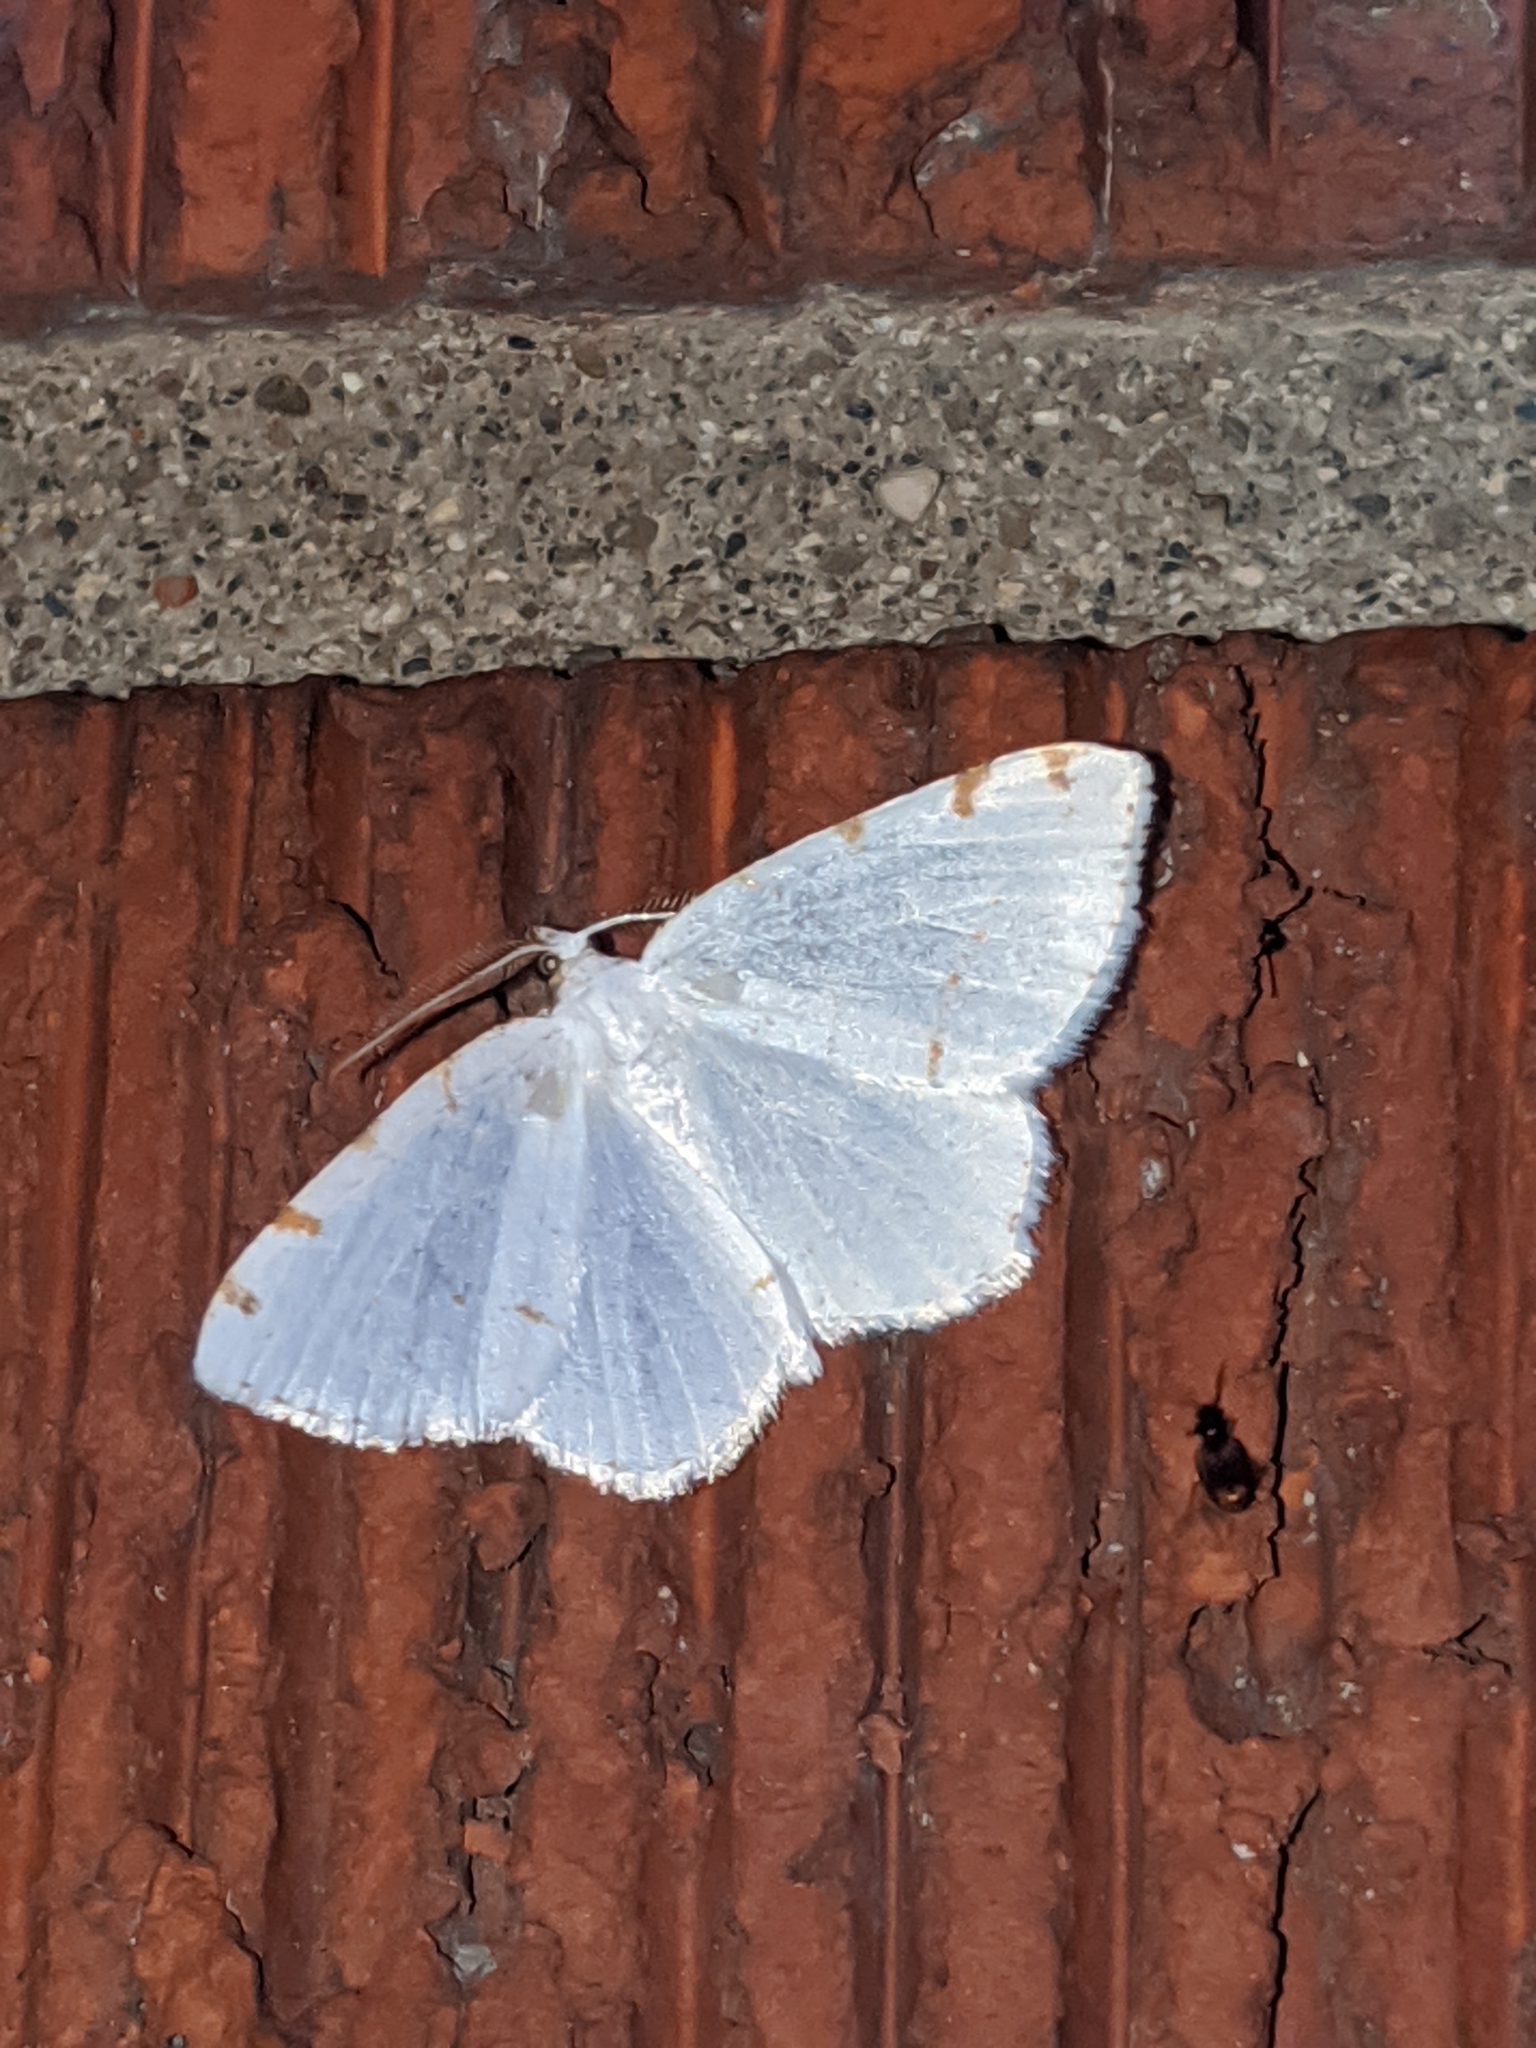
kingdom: Animalia
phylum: Arthropoda
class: Insecta
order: Lepidoptera
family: Geometridae
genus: Macaria
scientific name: Macaria pustularia
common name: Lesser maple spanworm moth
